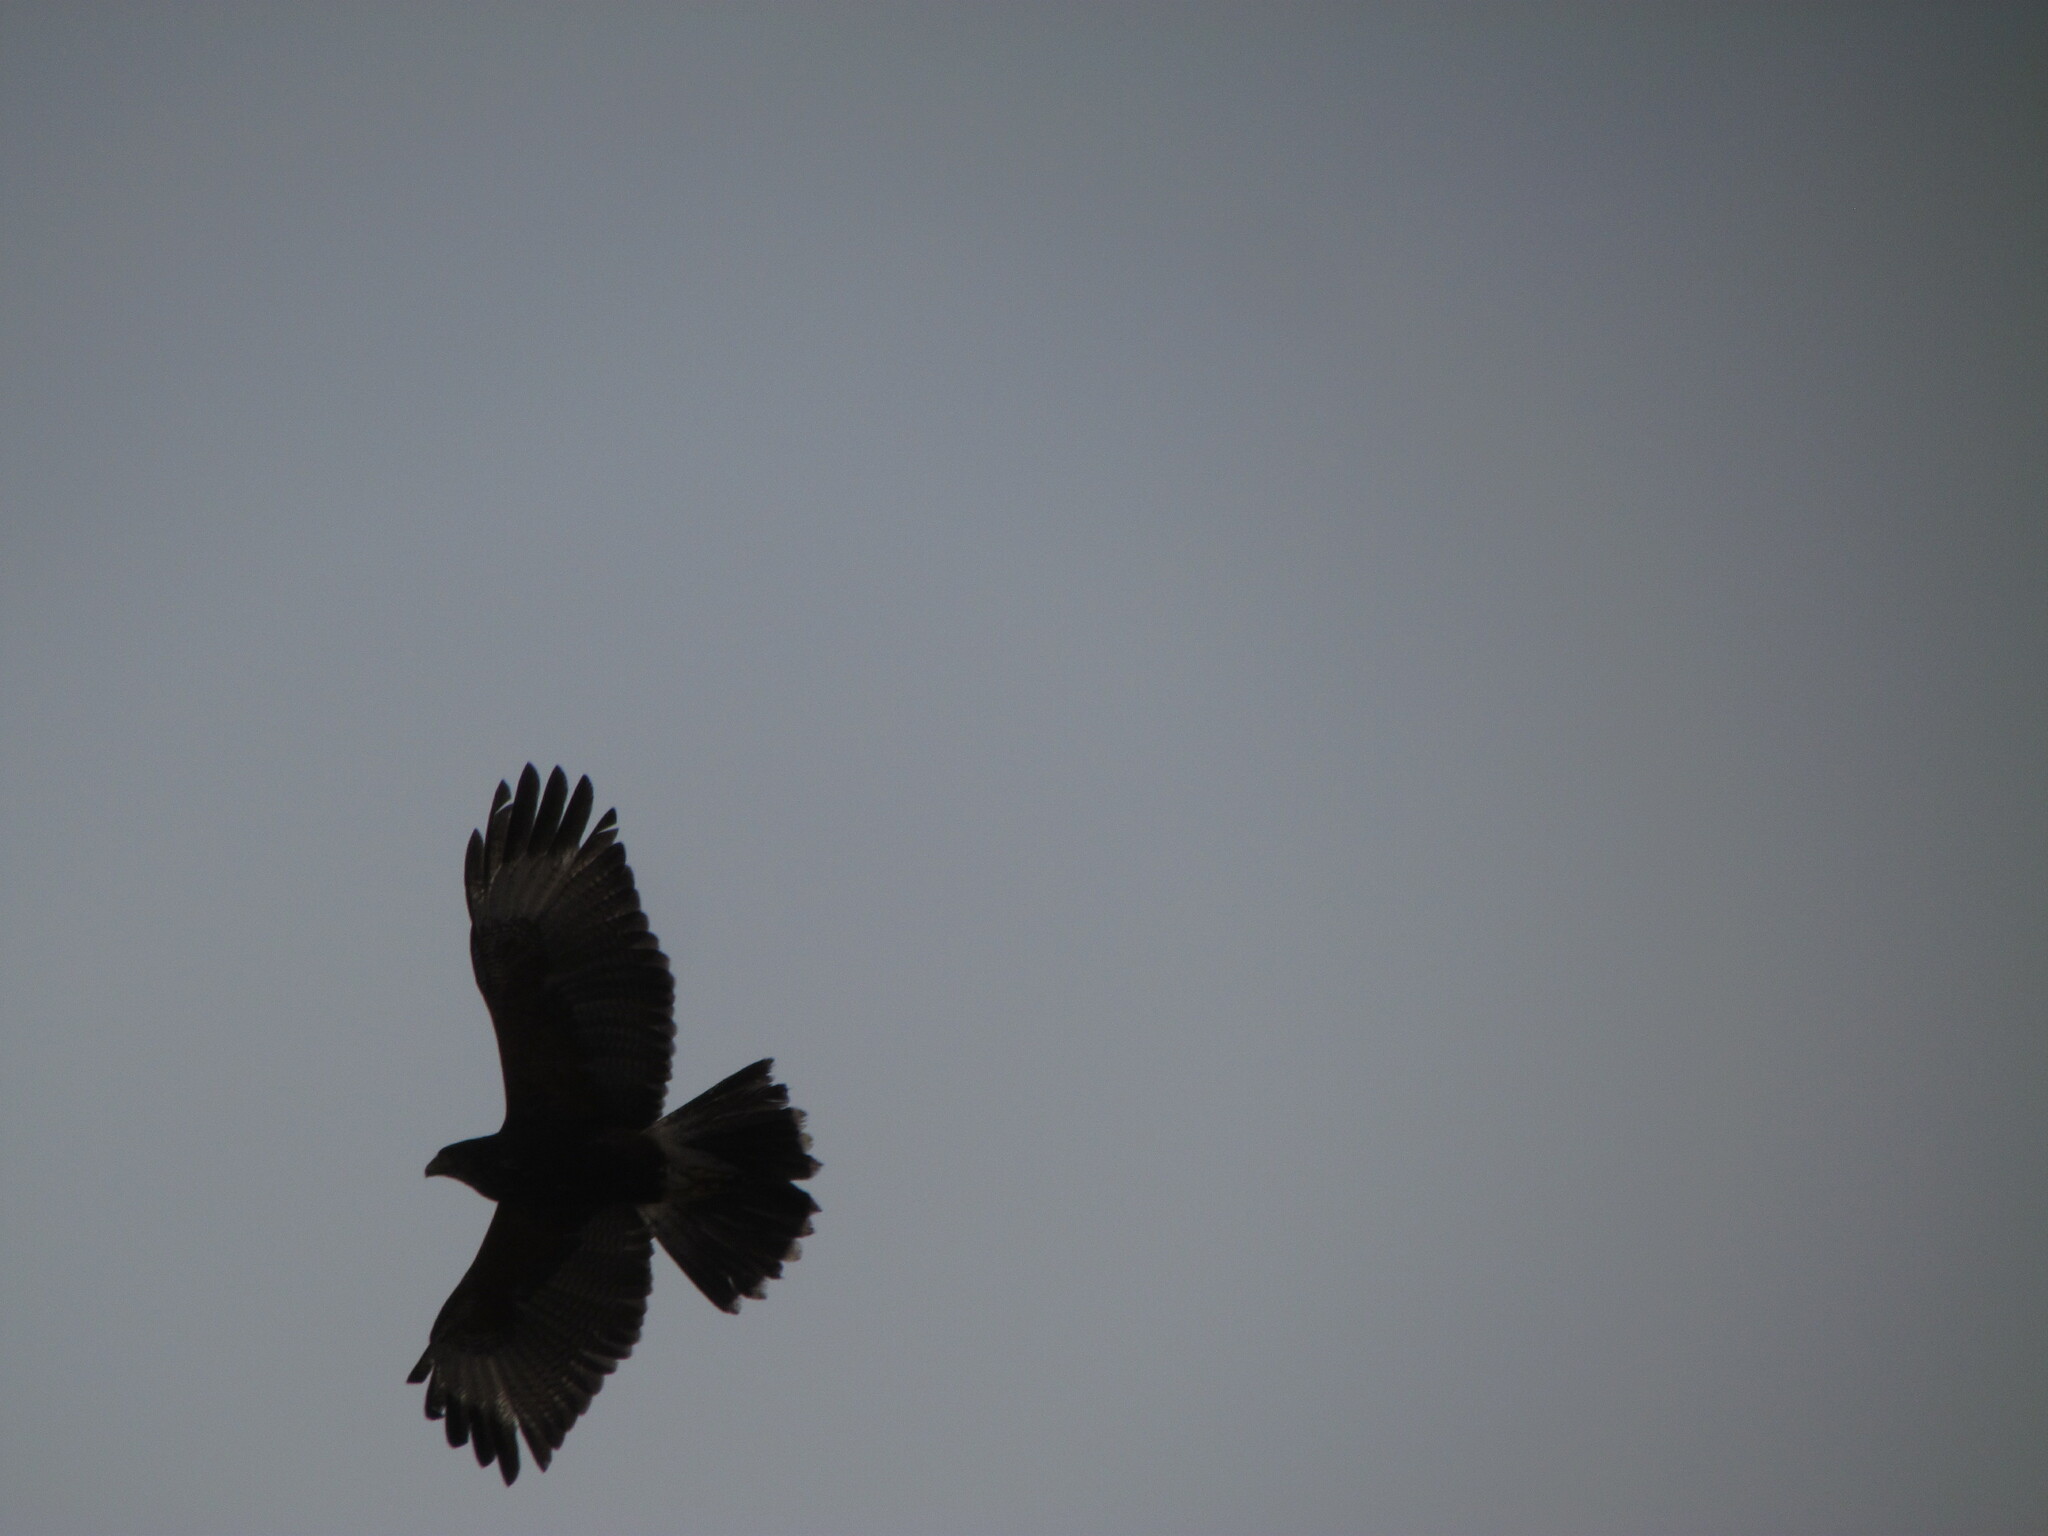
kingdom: Animalia
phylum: Chordata
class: Aves
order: Accipitriformes
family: Accipitridae
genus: Parabuteo
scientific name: Parabuteo unicinctus
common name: Harris's hawk
